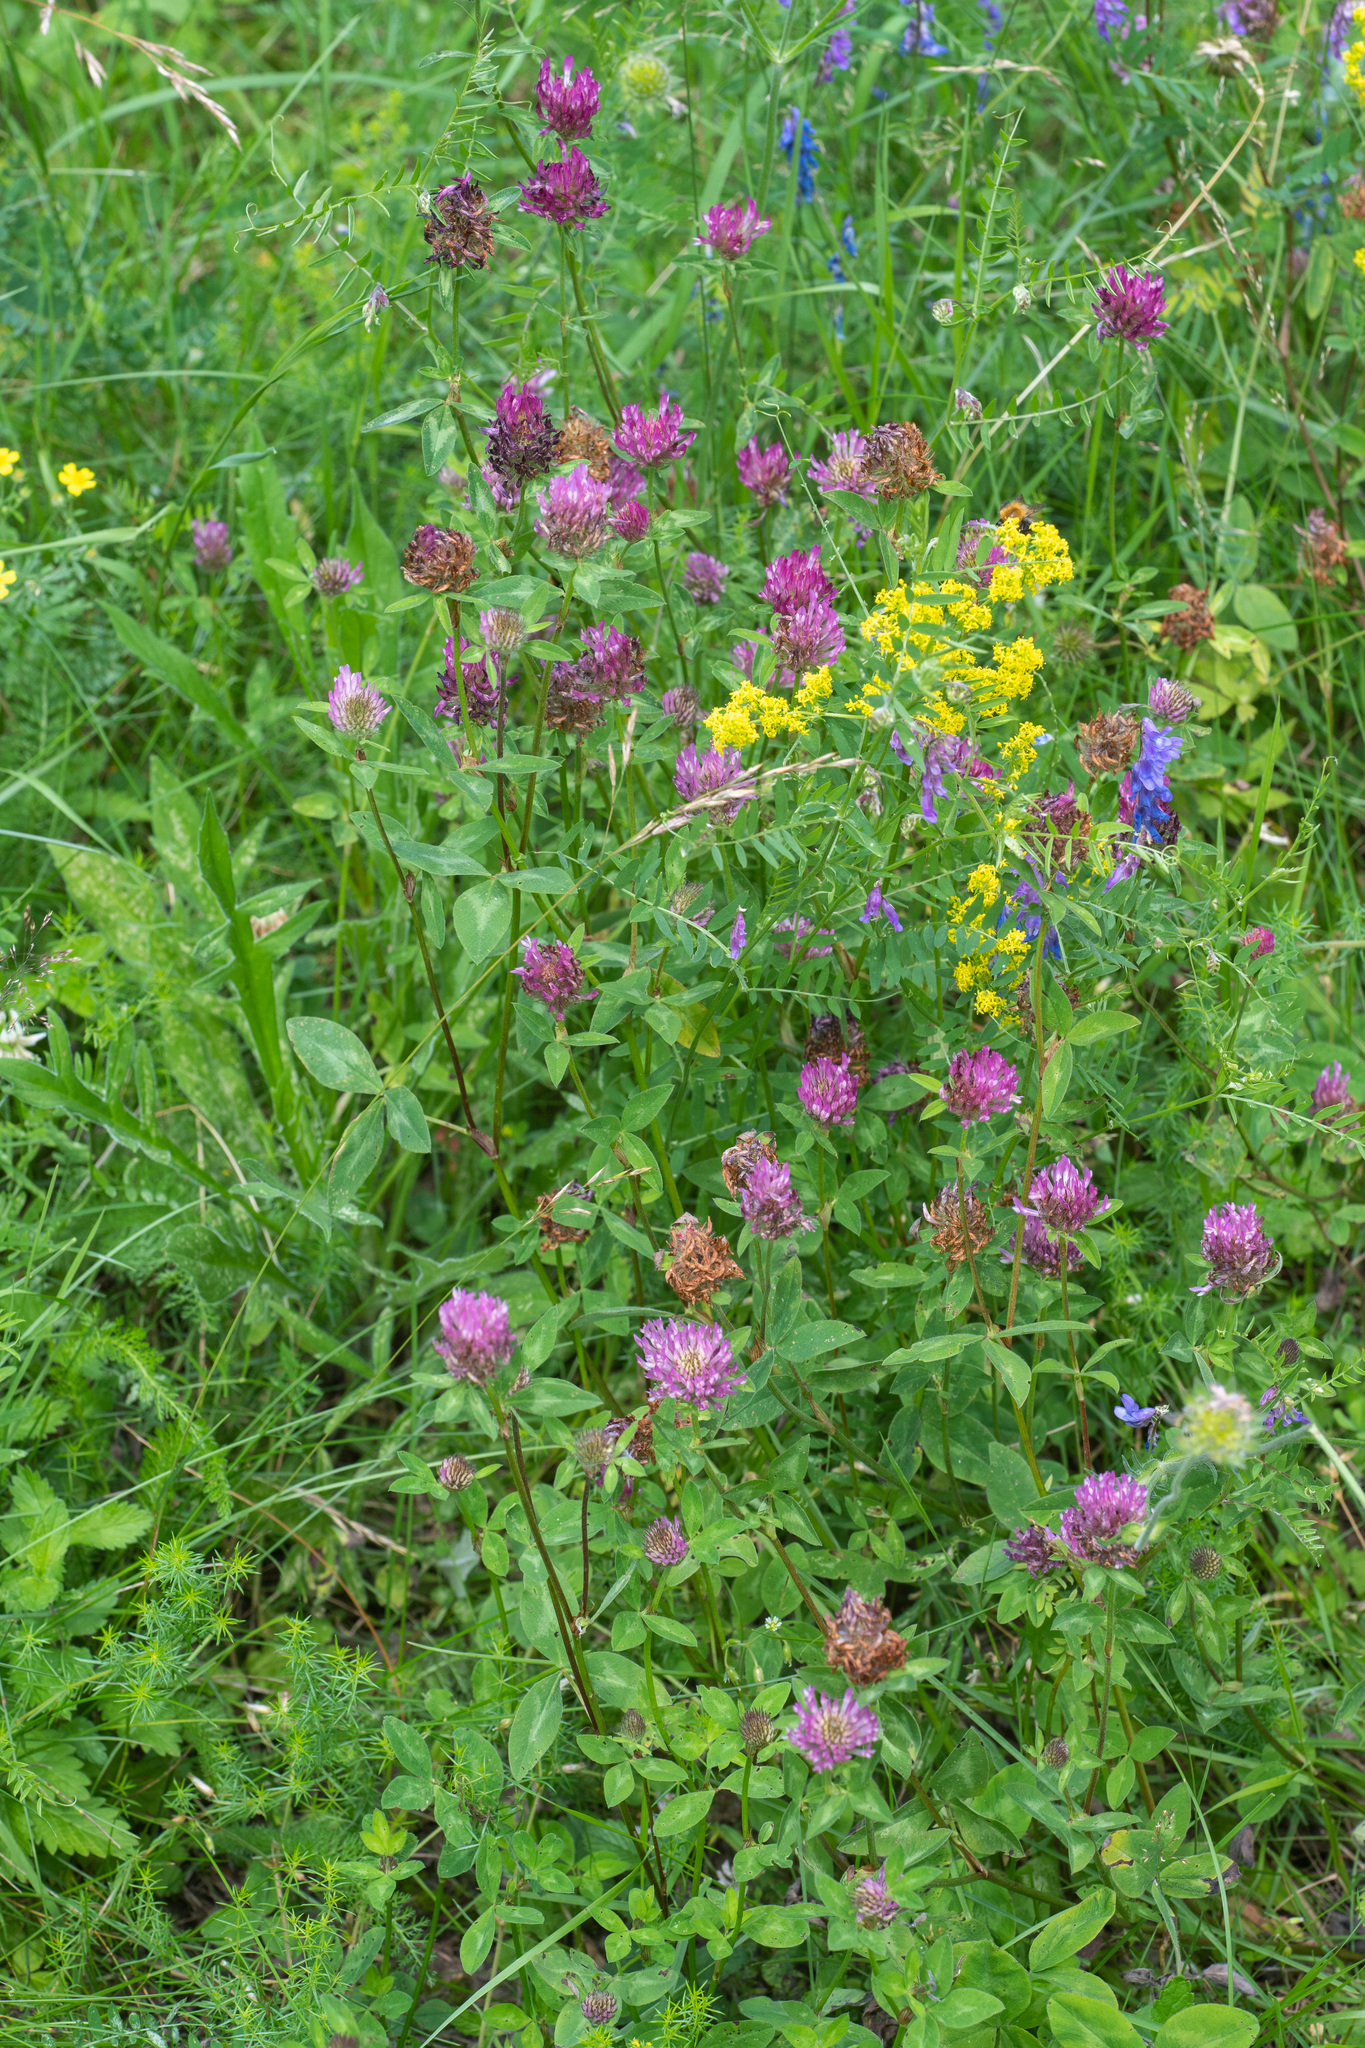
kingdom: Plantae
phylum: Tracheophyta
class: Magnoliopsida
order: Fabales
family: Fabaceae
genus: Trifolium
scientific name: Trifolium pratense
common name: Red clover
